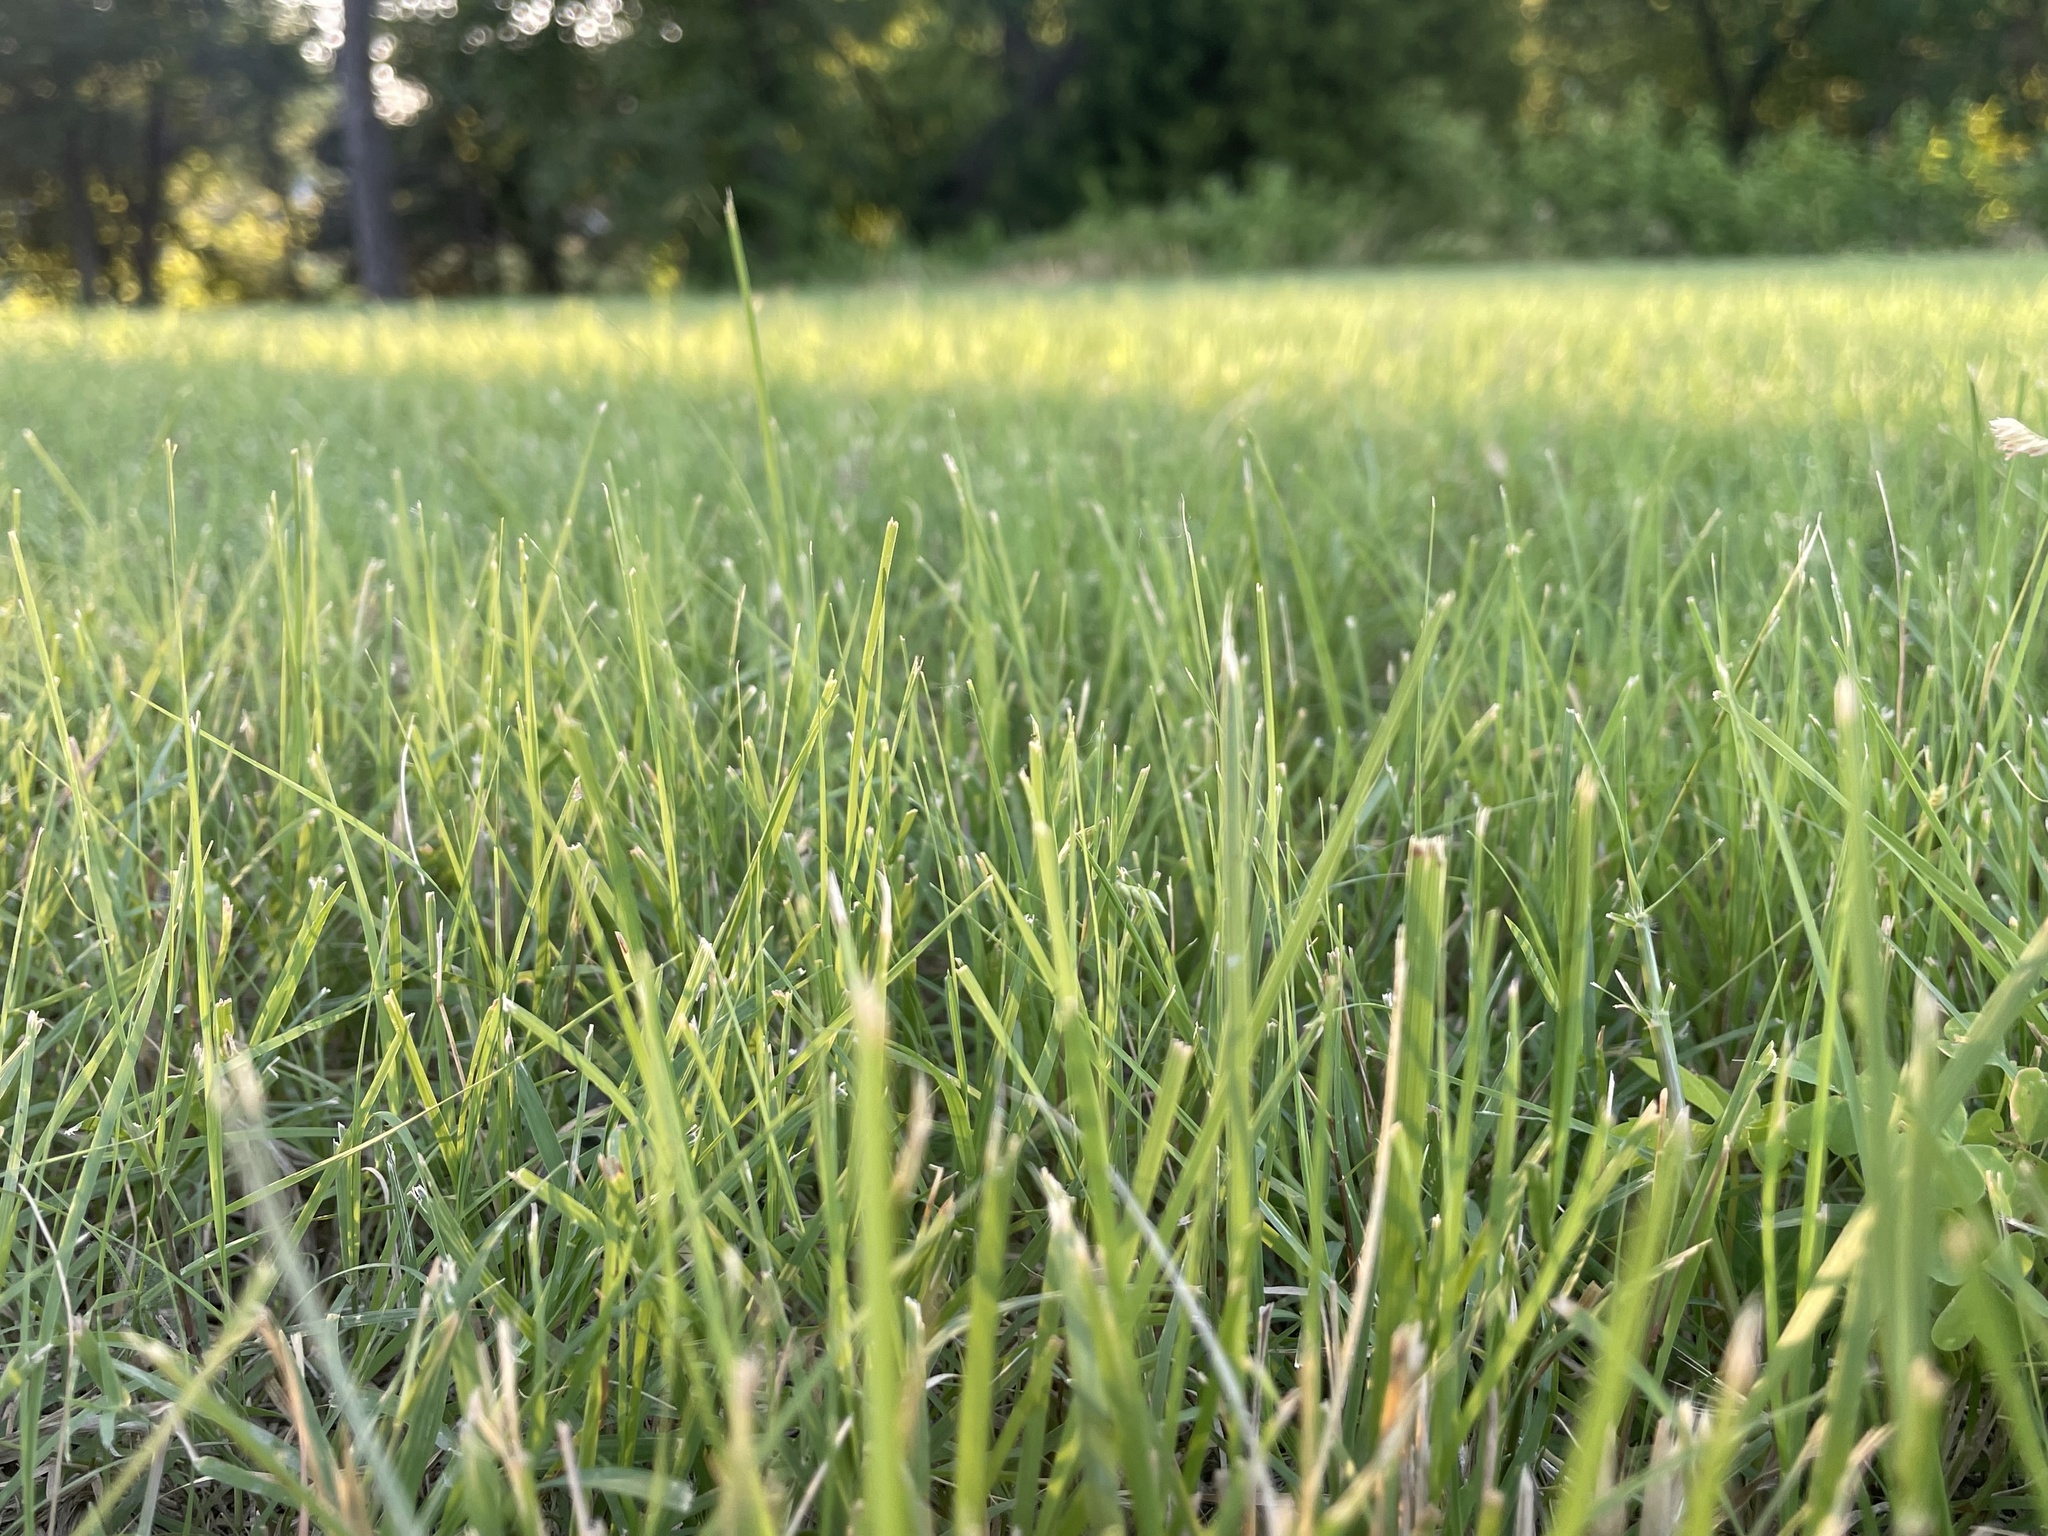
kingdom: Plantae
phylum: Tracheophyta
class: Liliopsida
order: Poales
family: Poaceae
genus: Bouteloua
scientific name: Bouteloua dactyloides
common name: Buffalo grass
